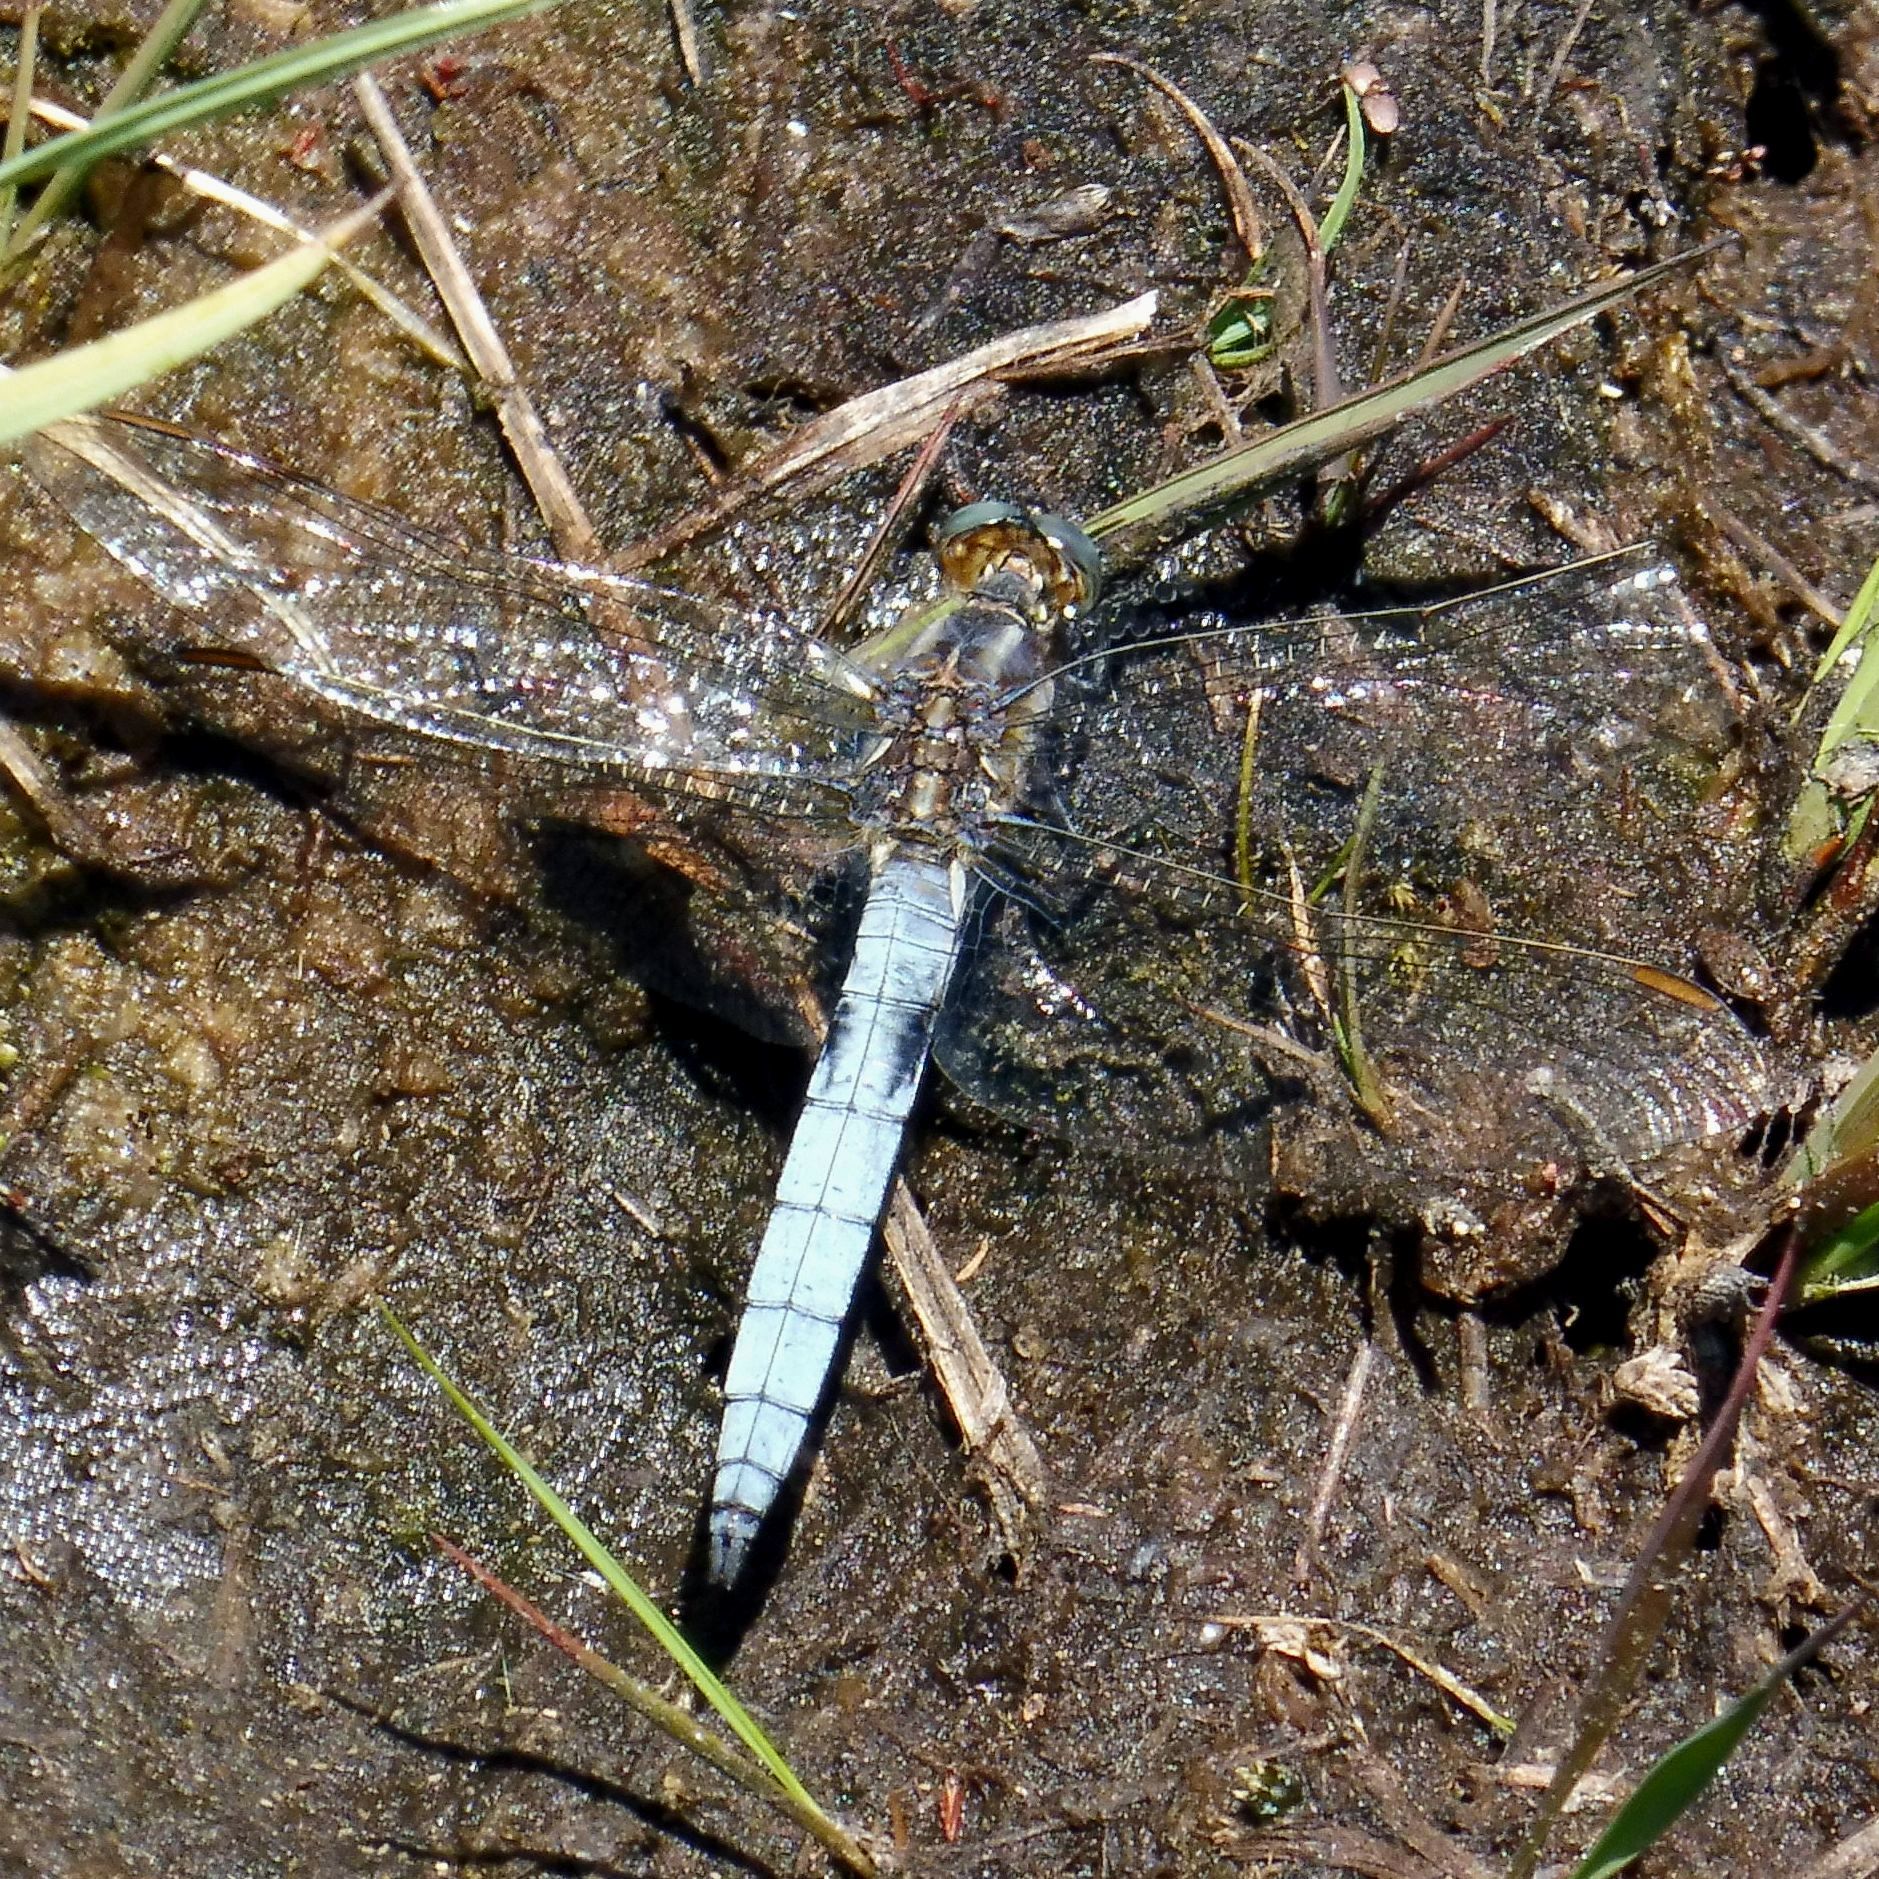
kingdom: Animalia
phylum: Arthropoda
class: Insecta
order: Odonata
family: Libellulidae
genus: Orthetrum
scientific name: Orthetrum coerulescens
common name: Keeled skimmer
